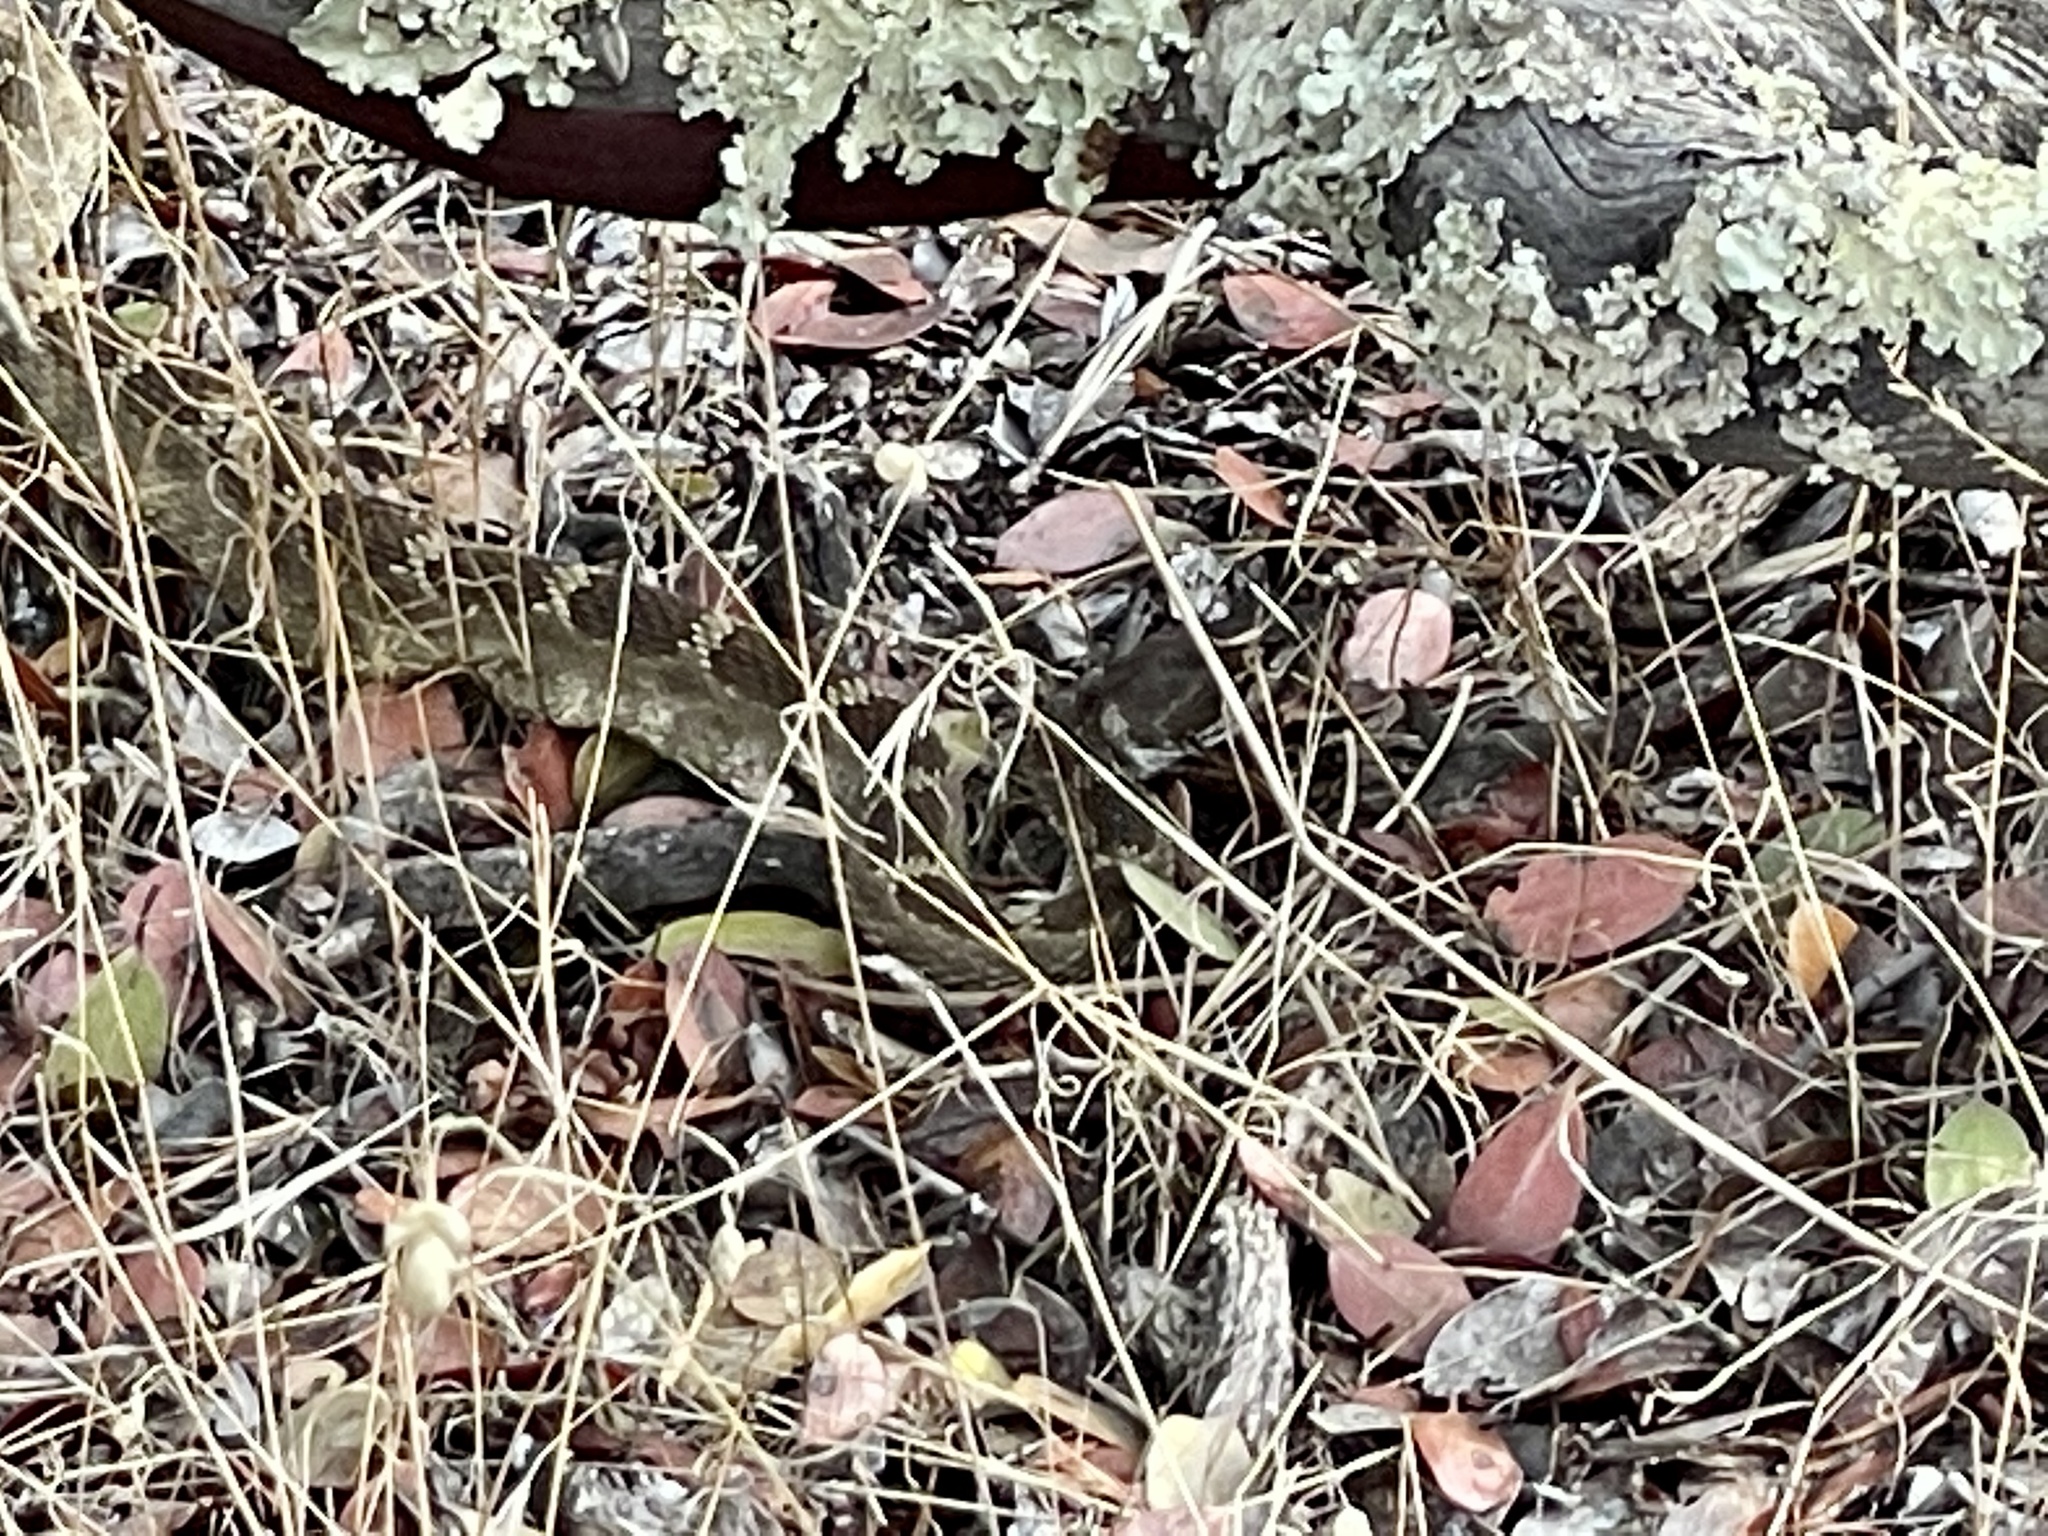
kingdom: Animalia
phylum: Chordata
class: Squamata
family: Viperidae
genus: Crotalus
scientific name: Crotalus oreganus
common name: Abyssus
